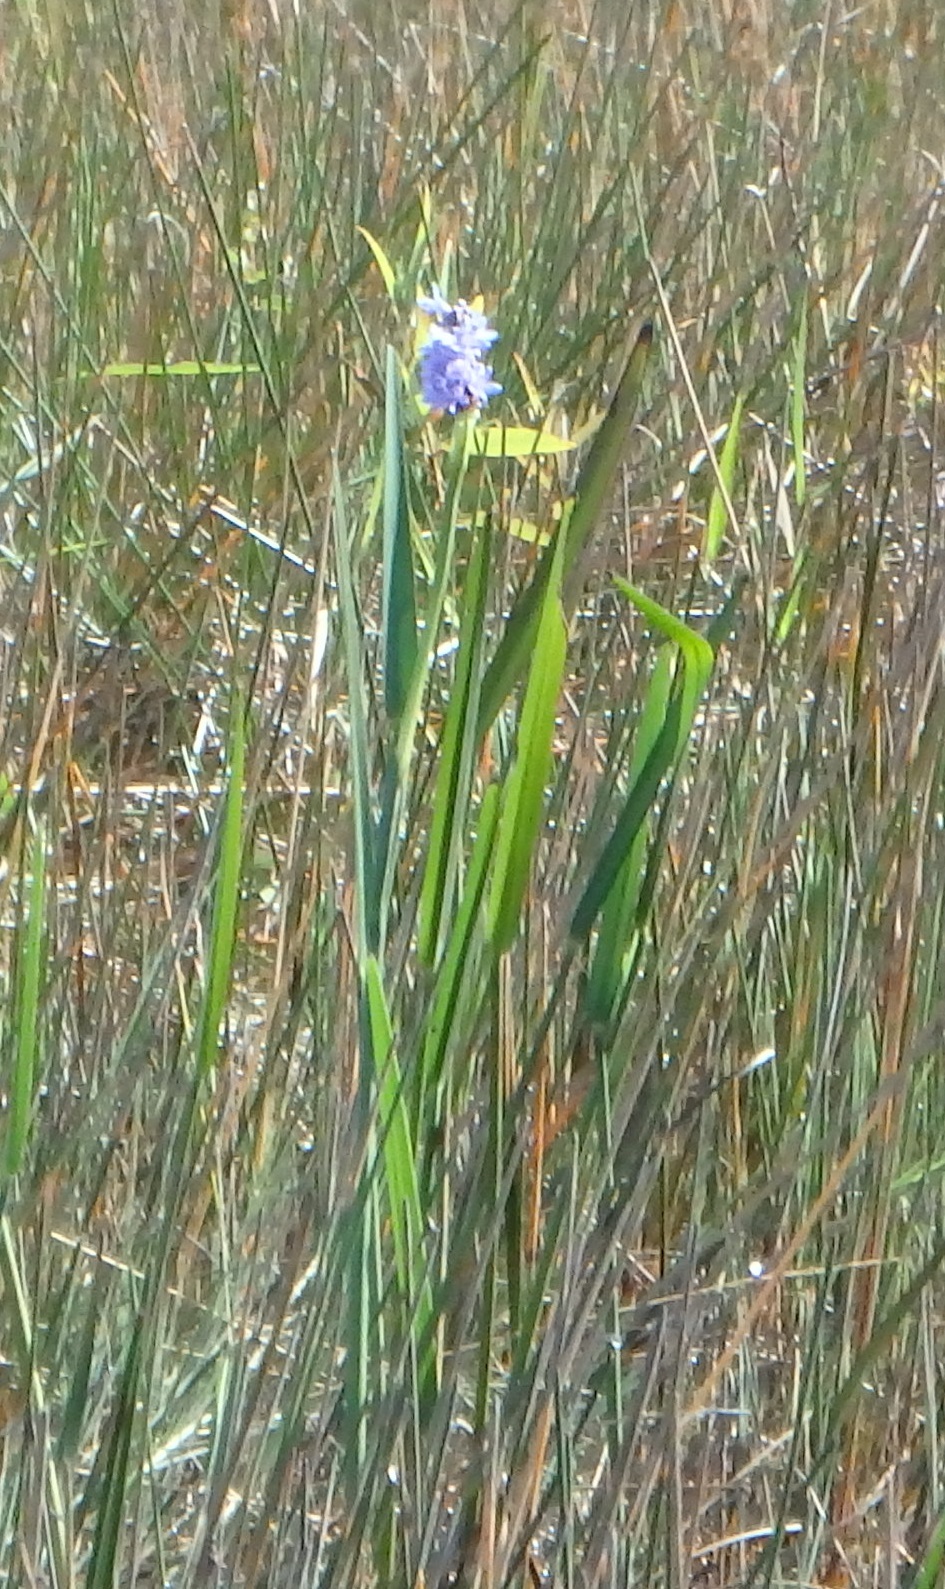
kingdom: Plantae
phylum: Tracheophyta
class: Liliopsida
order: Commelinales
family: Pontederiaceae
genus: Pontederia
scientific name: Pontederia cordata
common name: Pickerelweed
